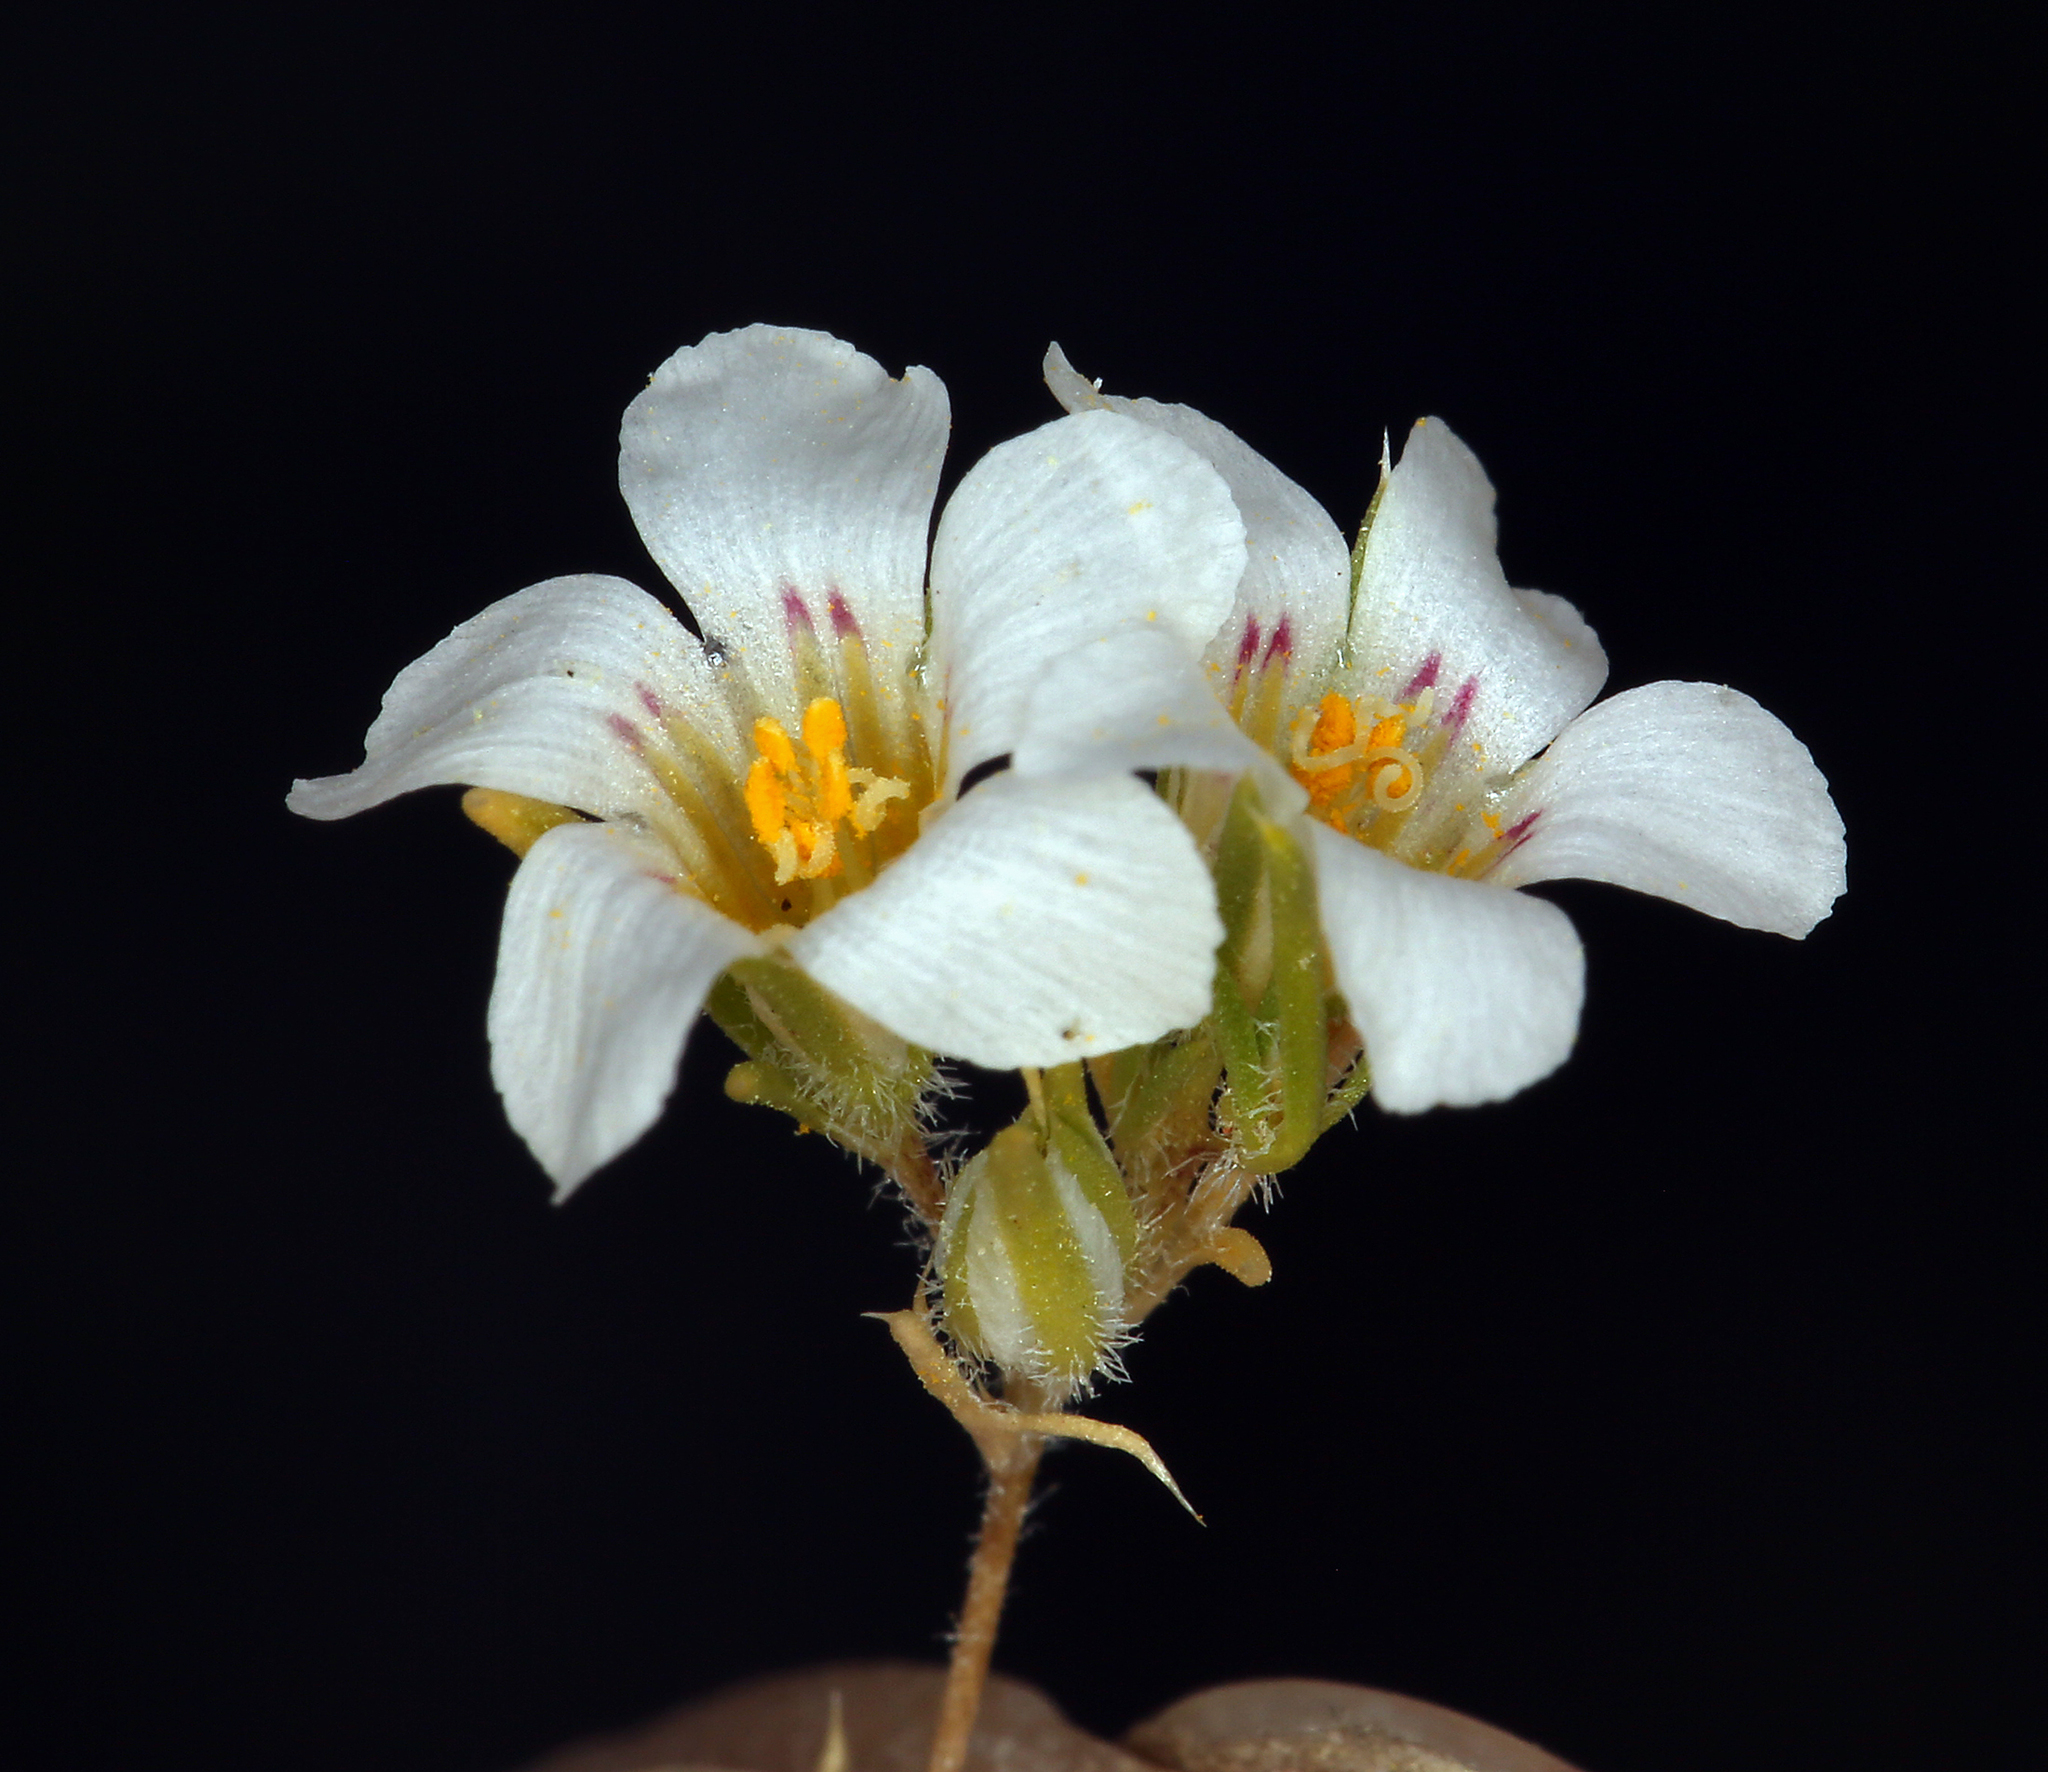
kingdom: Plantae
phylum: Tracheophyta
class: Magnoliopsida
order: Ericales
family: Polemoniaceae
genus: Linanthus
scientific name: Linanthus demissus
